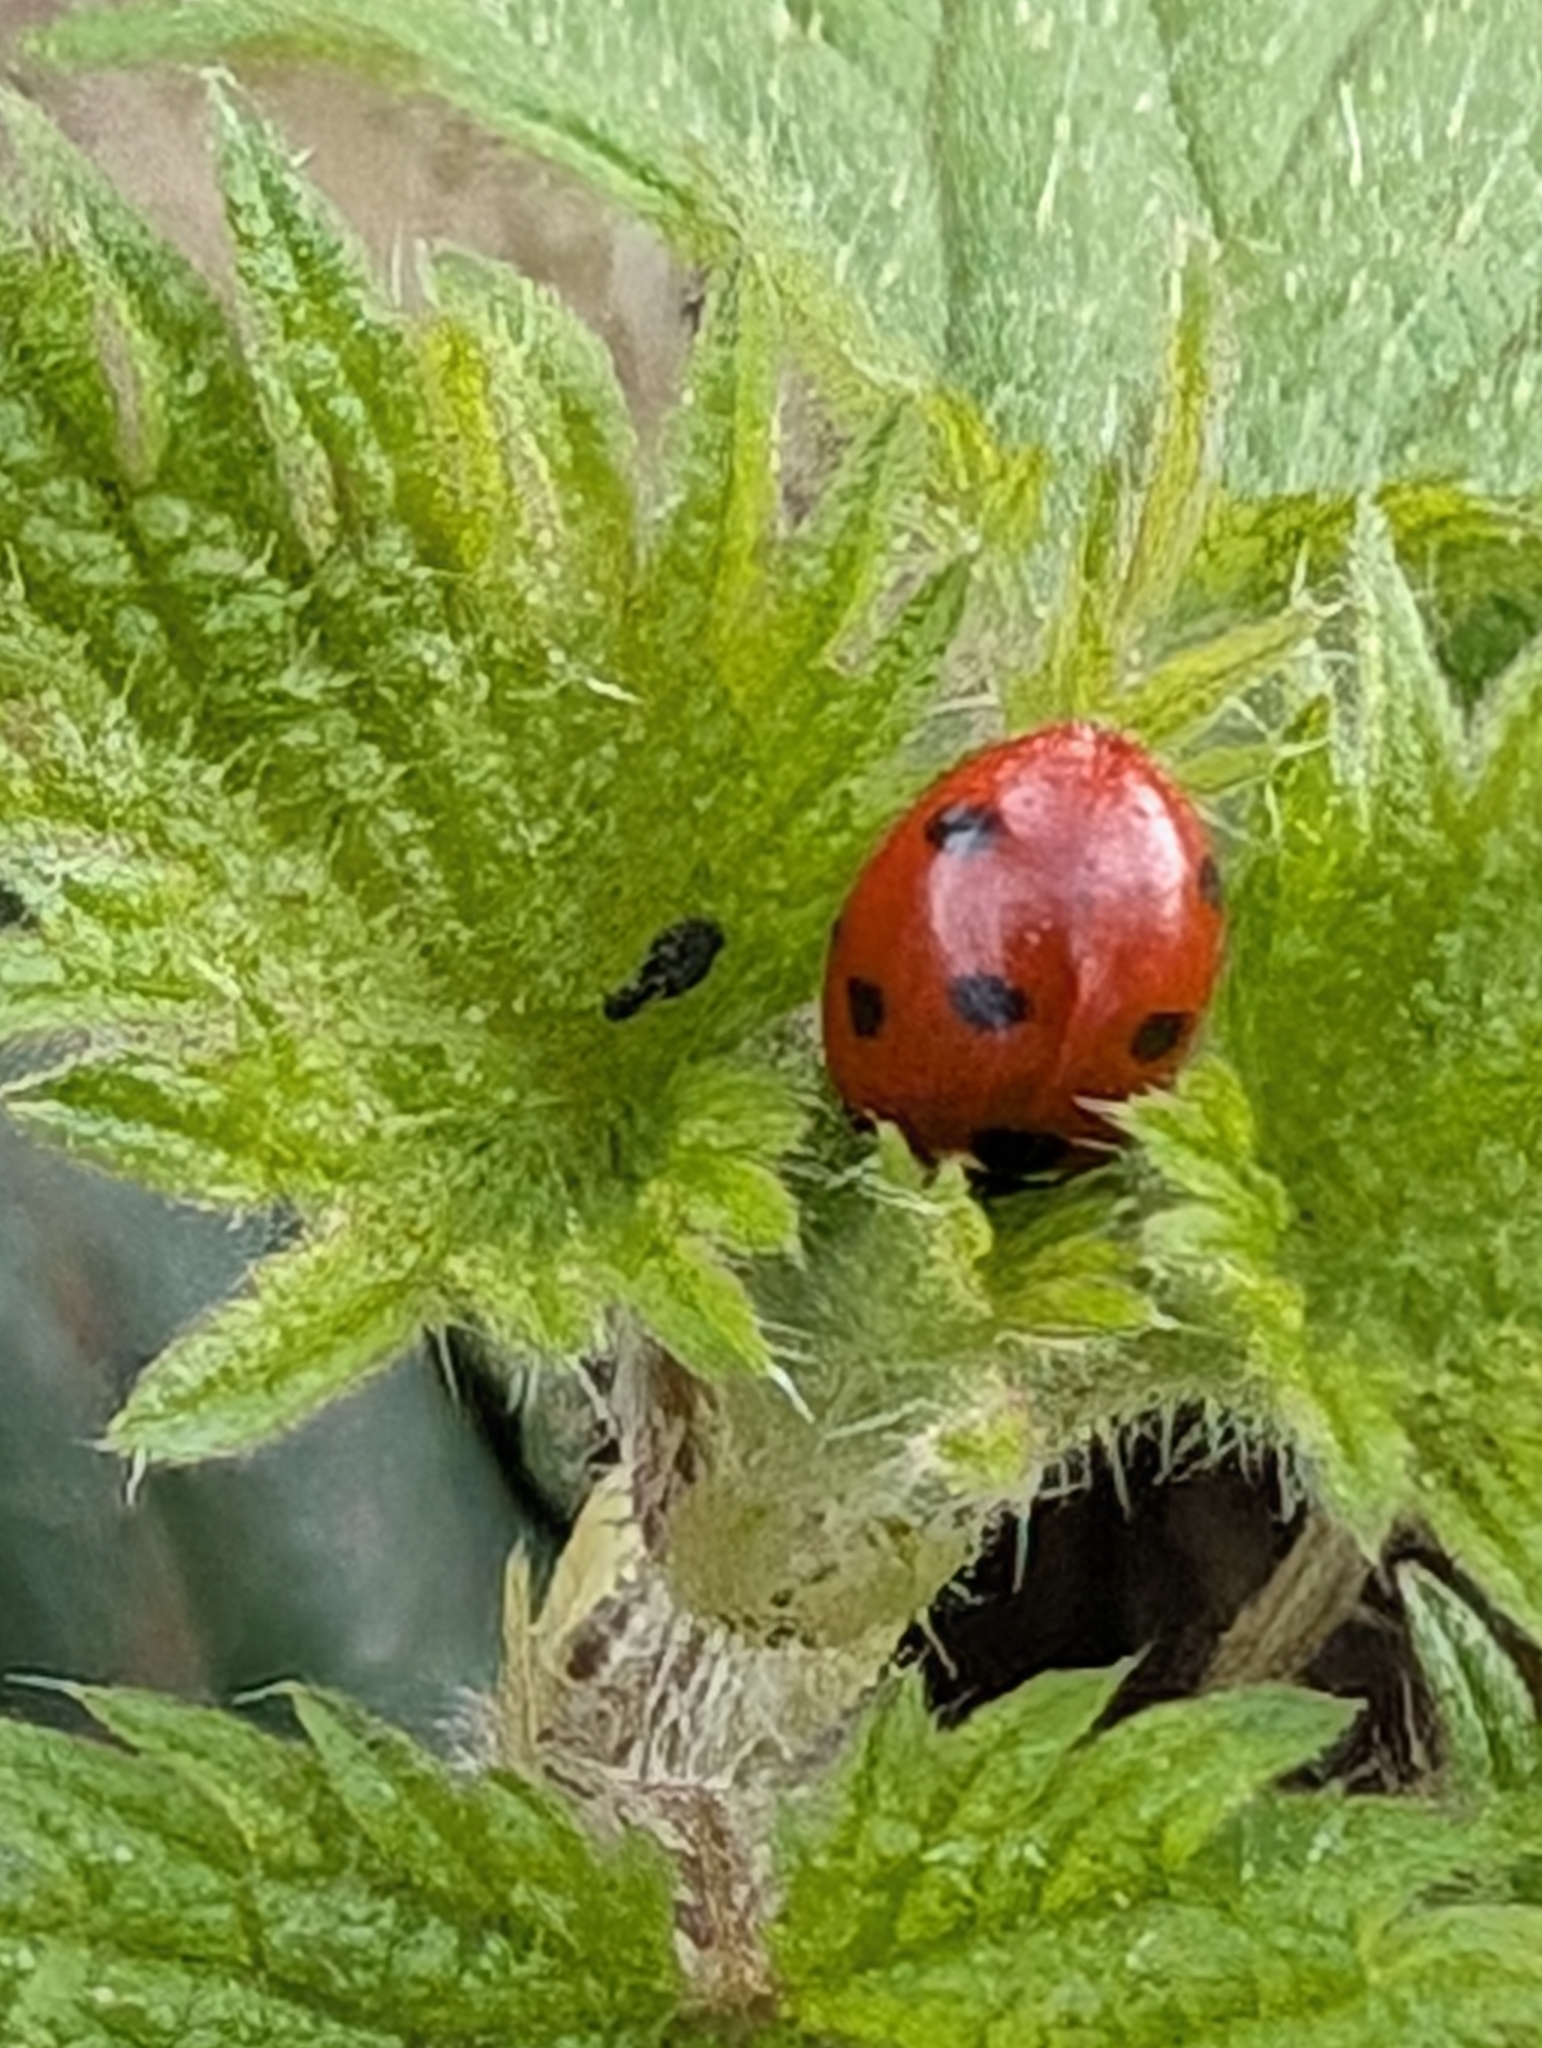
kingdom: Animalia
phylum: Arthropoda
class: Insecta
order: Coleoptera
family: Coccinellidae
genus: Coccinella
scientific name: Coccinella septempunctata
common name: Sevenspotted lady beetle
